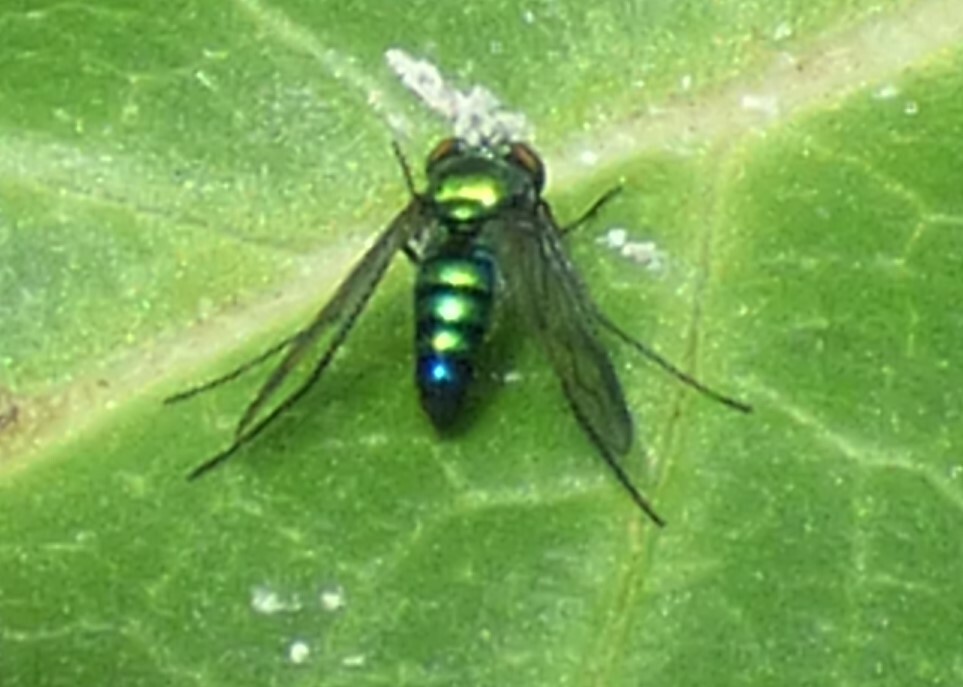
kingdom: Animalia
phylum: Arthropoda
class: Insecta
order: Diptera
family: Dolichopodidae
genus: Condylostylus
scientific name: Condylostylus patibulatus
